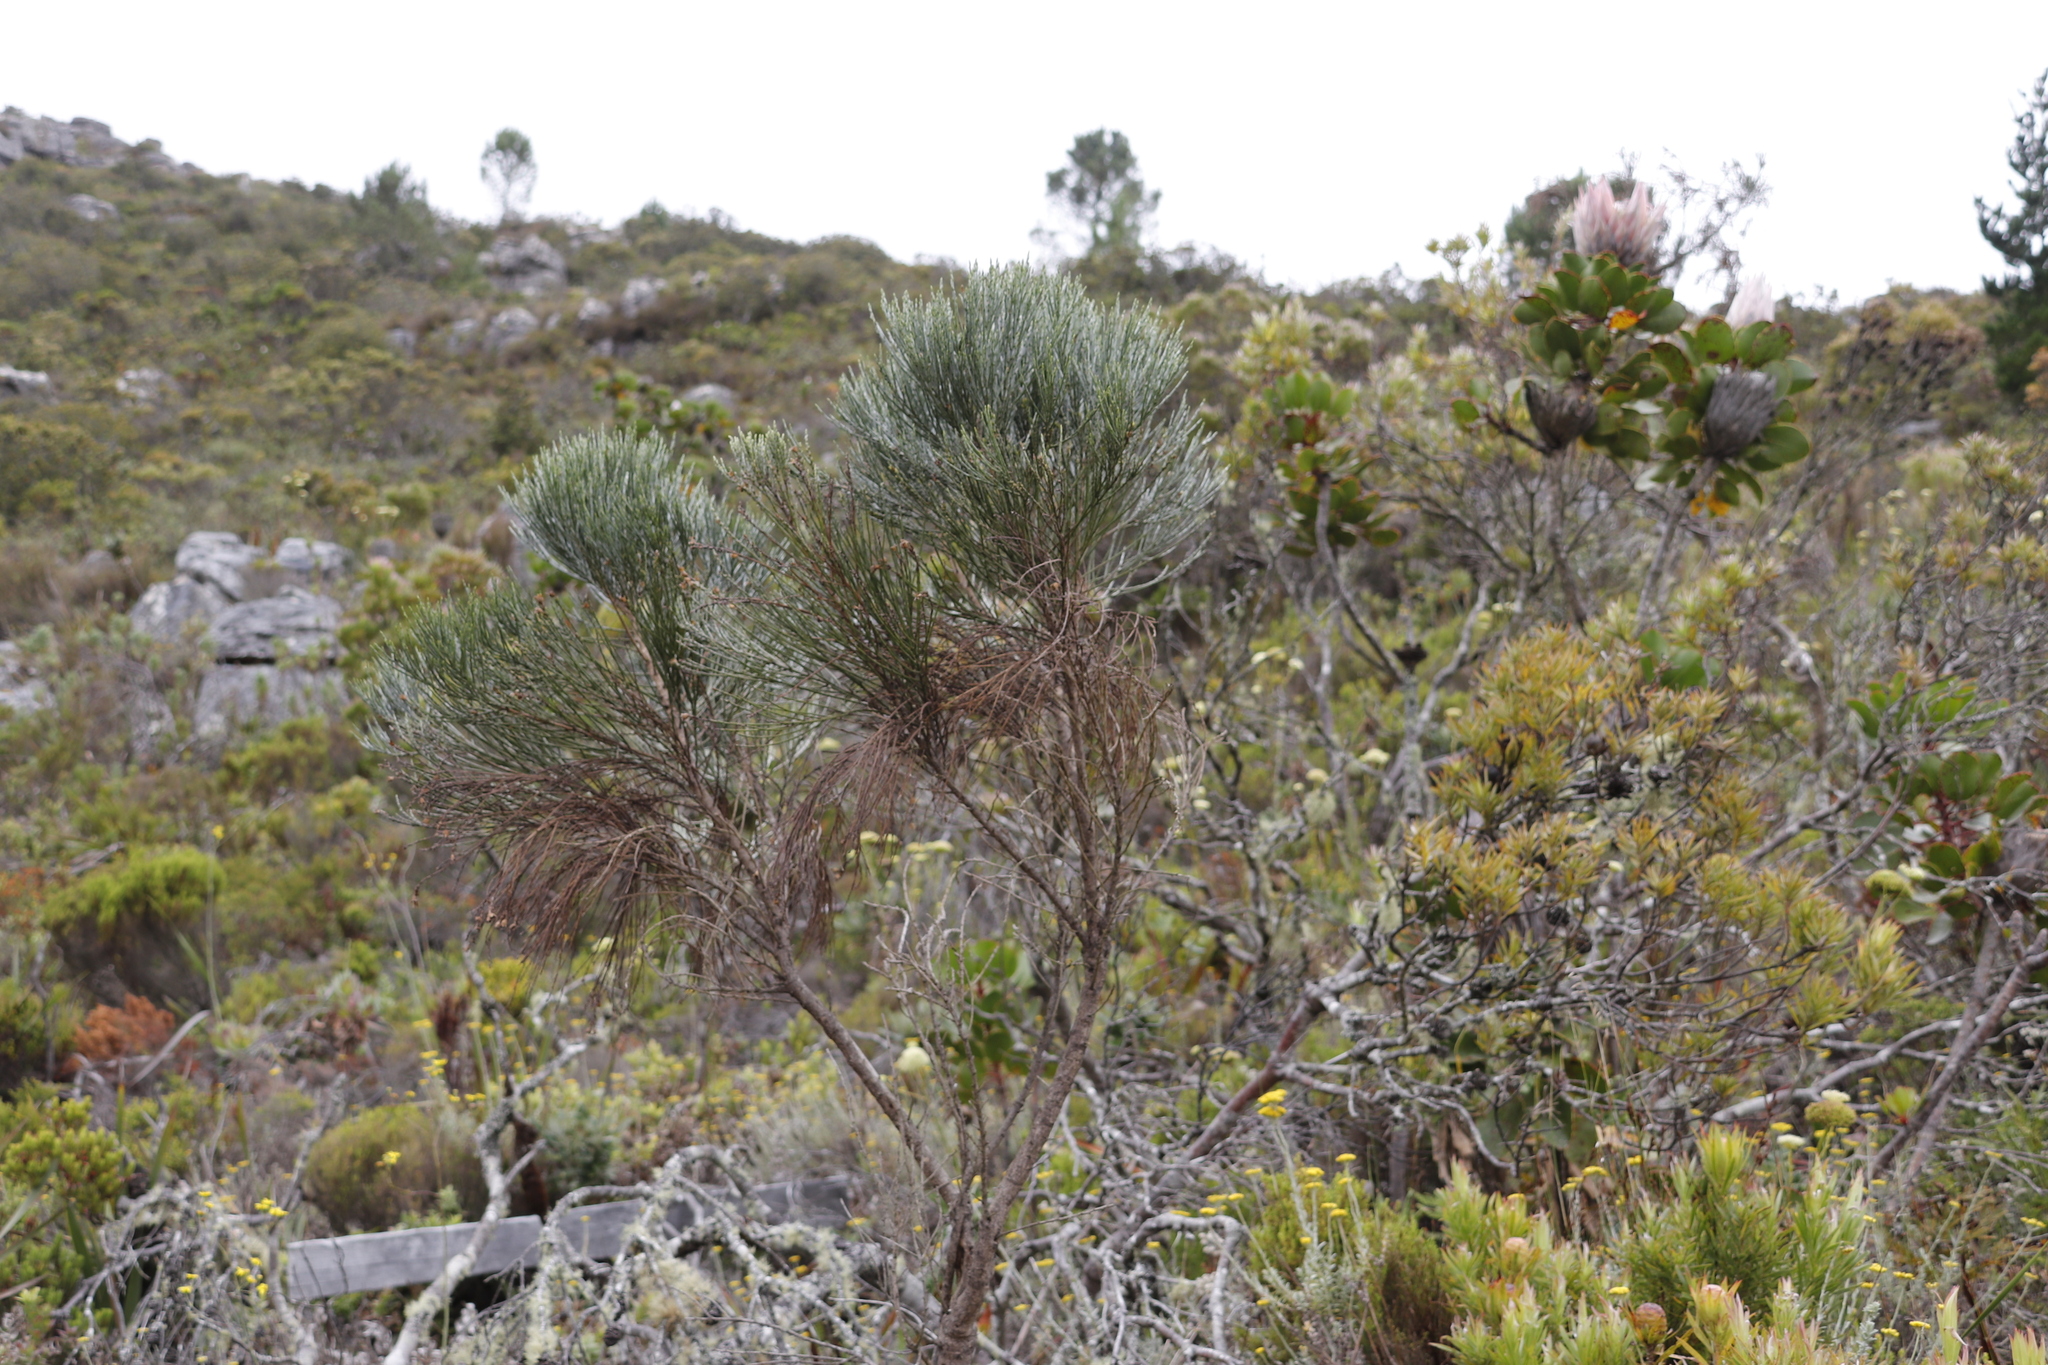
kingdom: Plantae
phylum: Tracheophyta
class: Magnoliopsida
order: Fabales
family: Fabaceae
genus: Psoralea
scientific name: Psoralea aphylla
